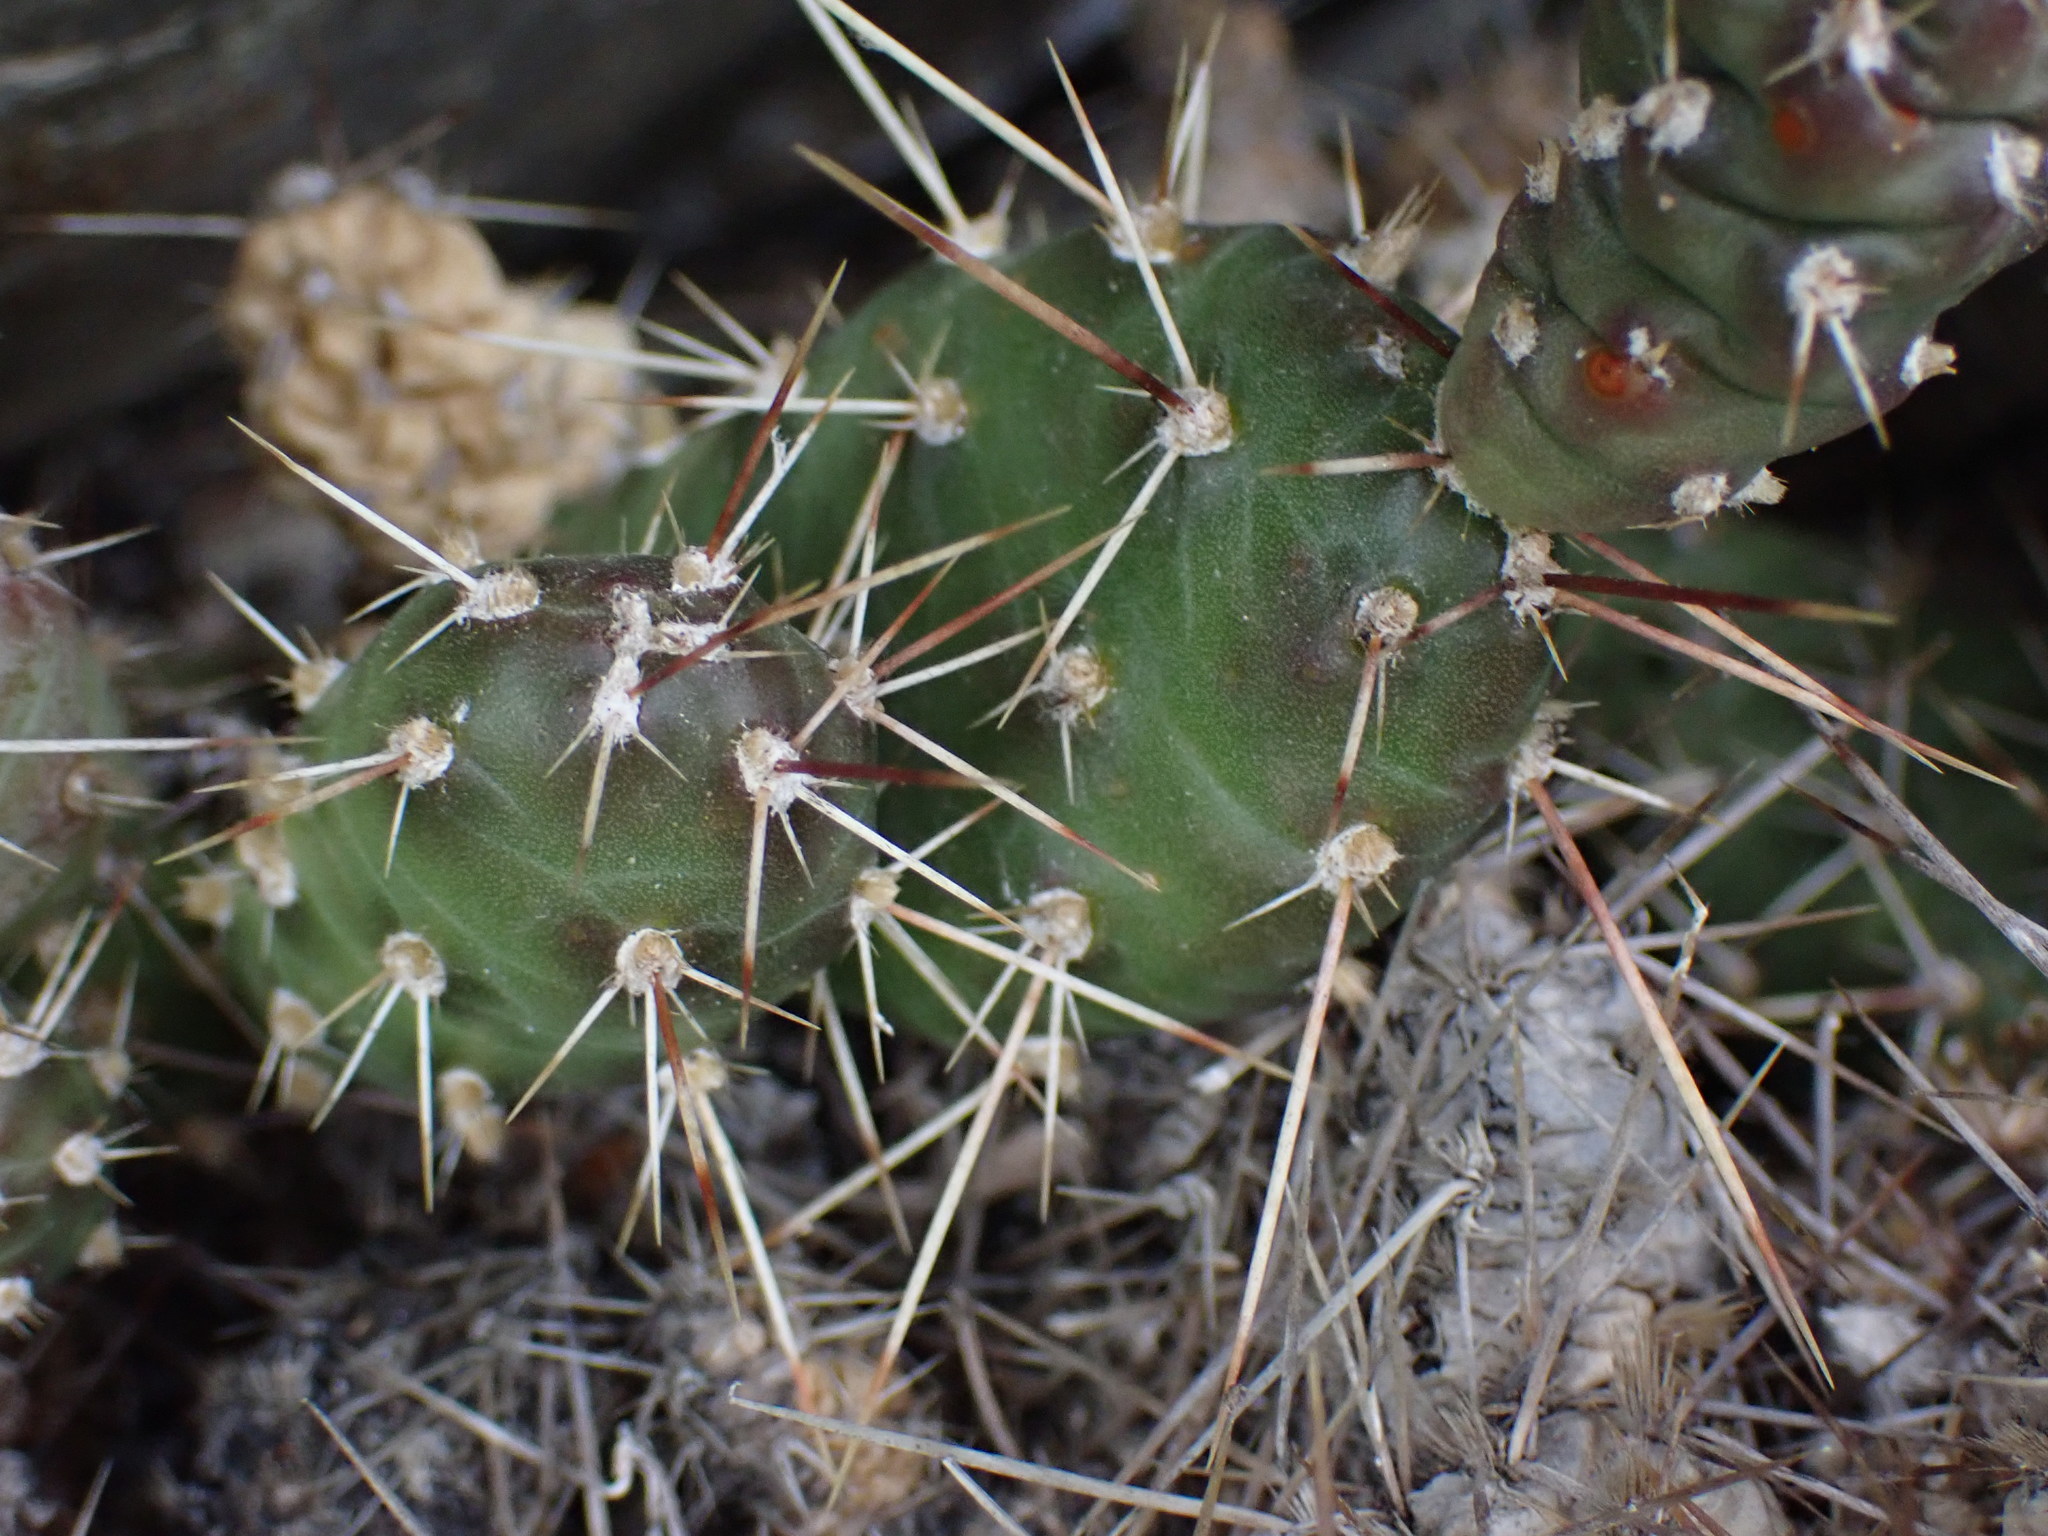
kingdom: Plantae
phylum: Tracheophyta
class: Magnoliopsida
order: Caryophyllales
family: Cactaceae
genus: Opuntia
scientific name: Opuntia fragilis
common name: Brittle cactus
